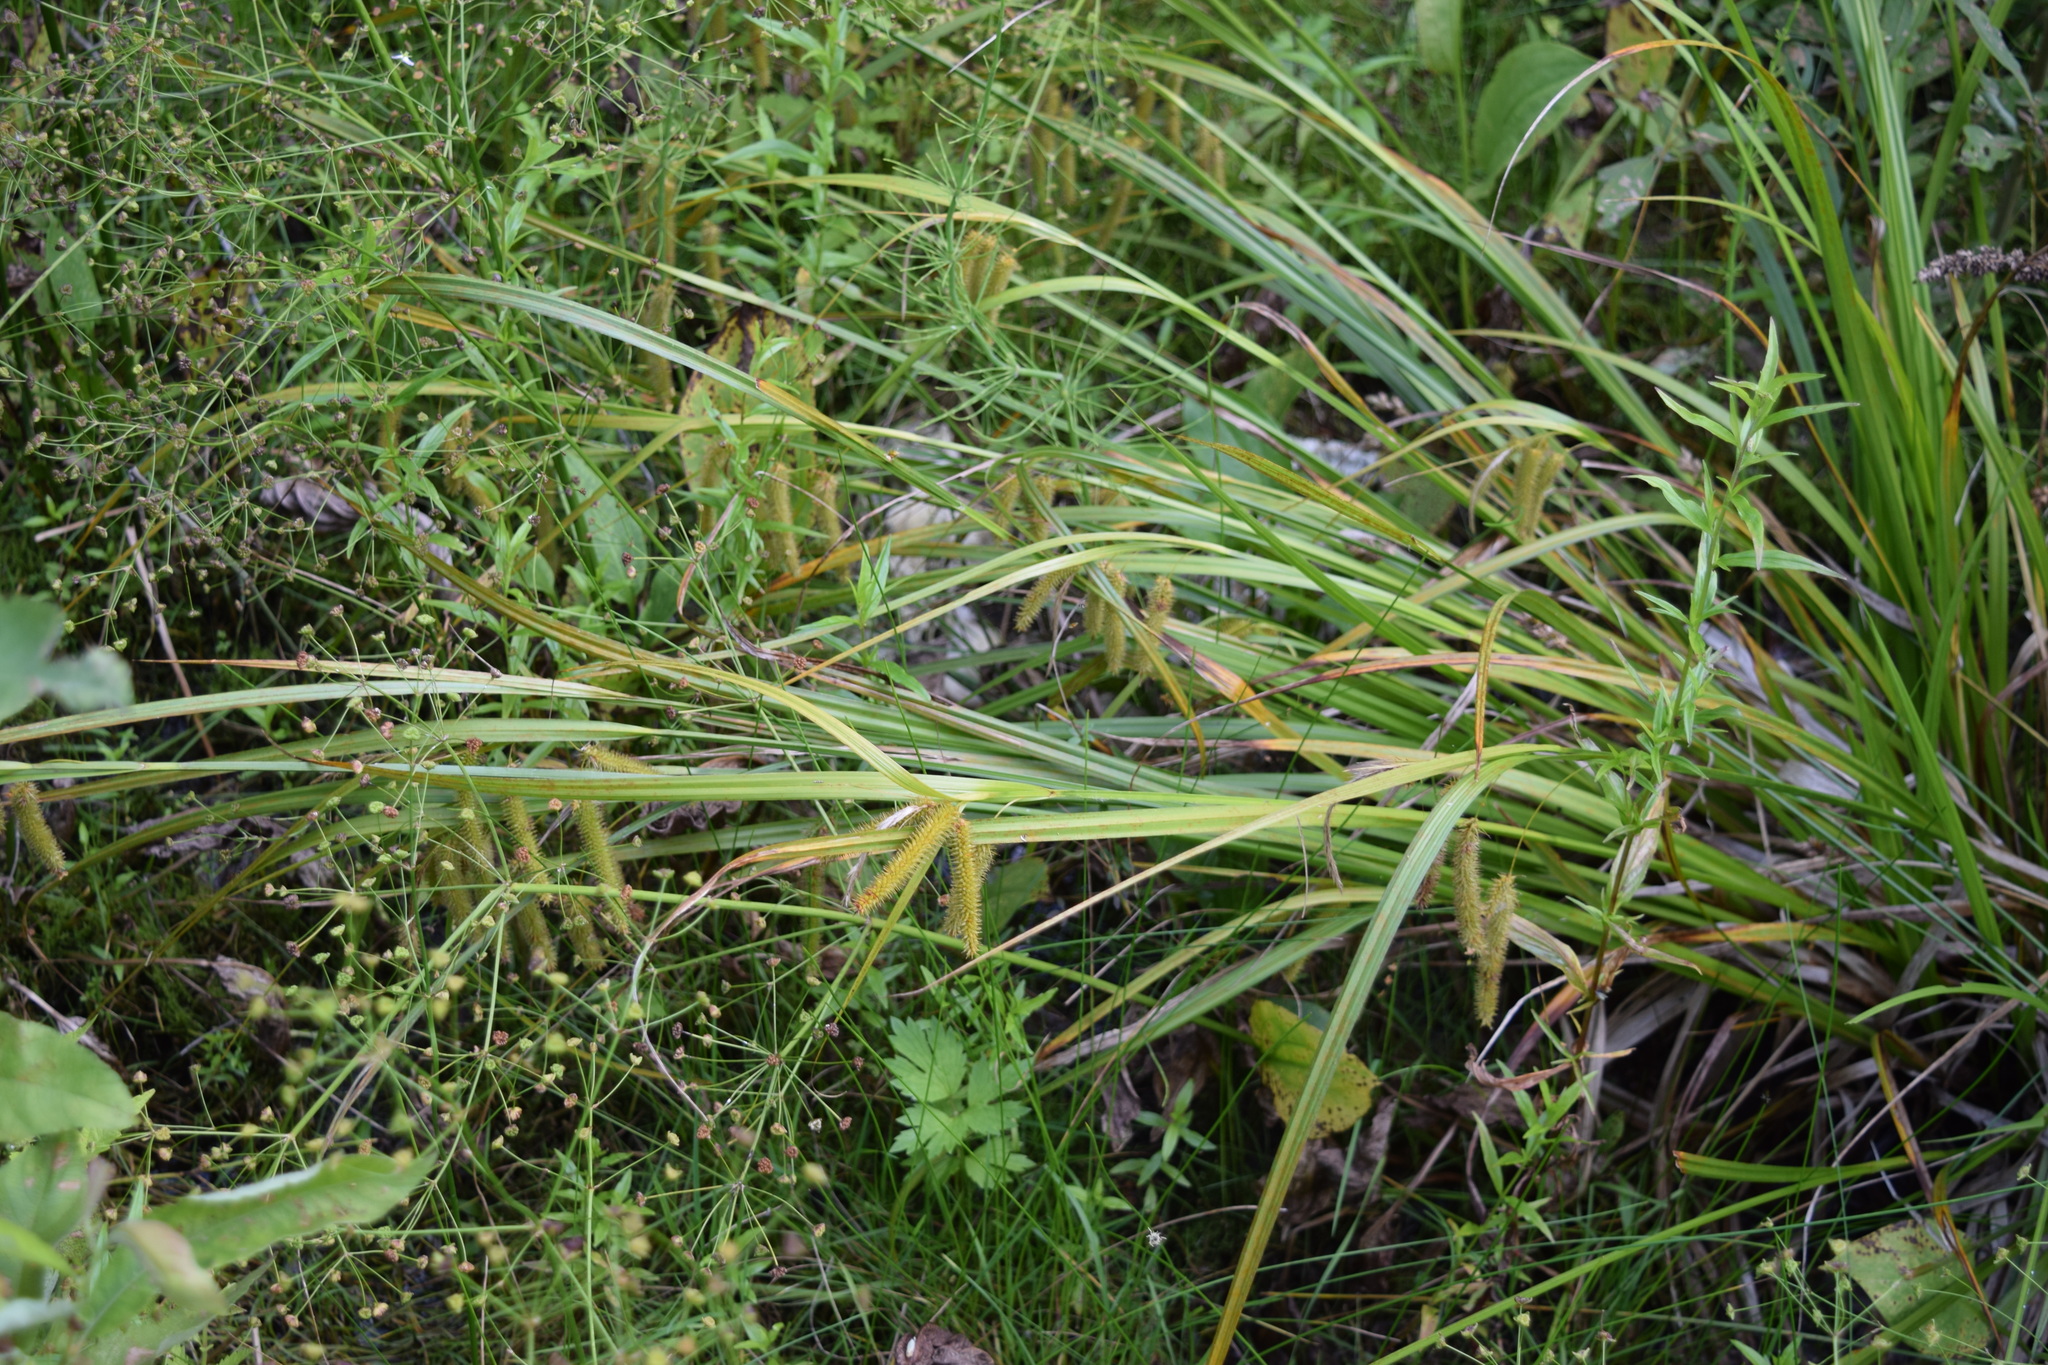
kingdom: Plantae
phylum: Tracheophyta
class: Liliopsida
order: Poales
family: Cyperaceae
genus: Carex
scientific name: Carex pseudocyperus
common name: Cyperus sedge
